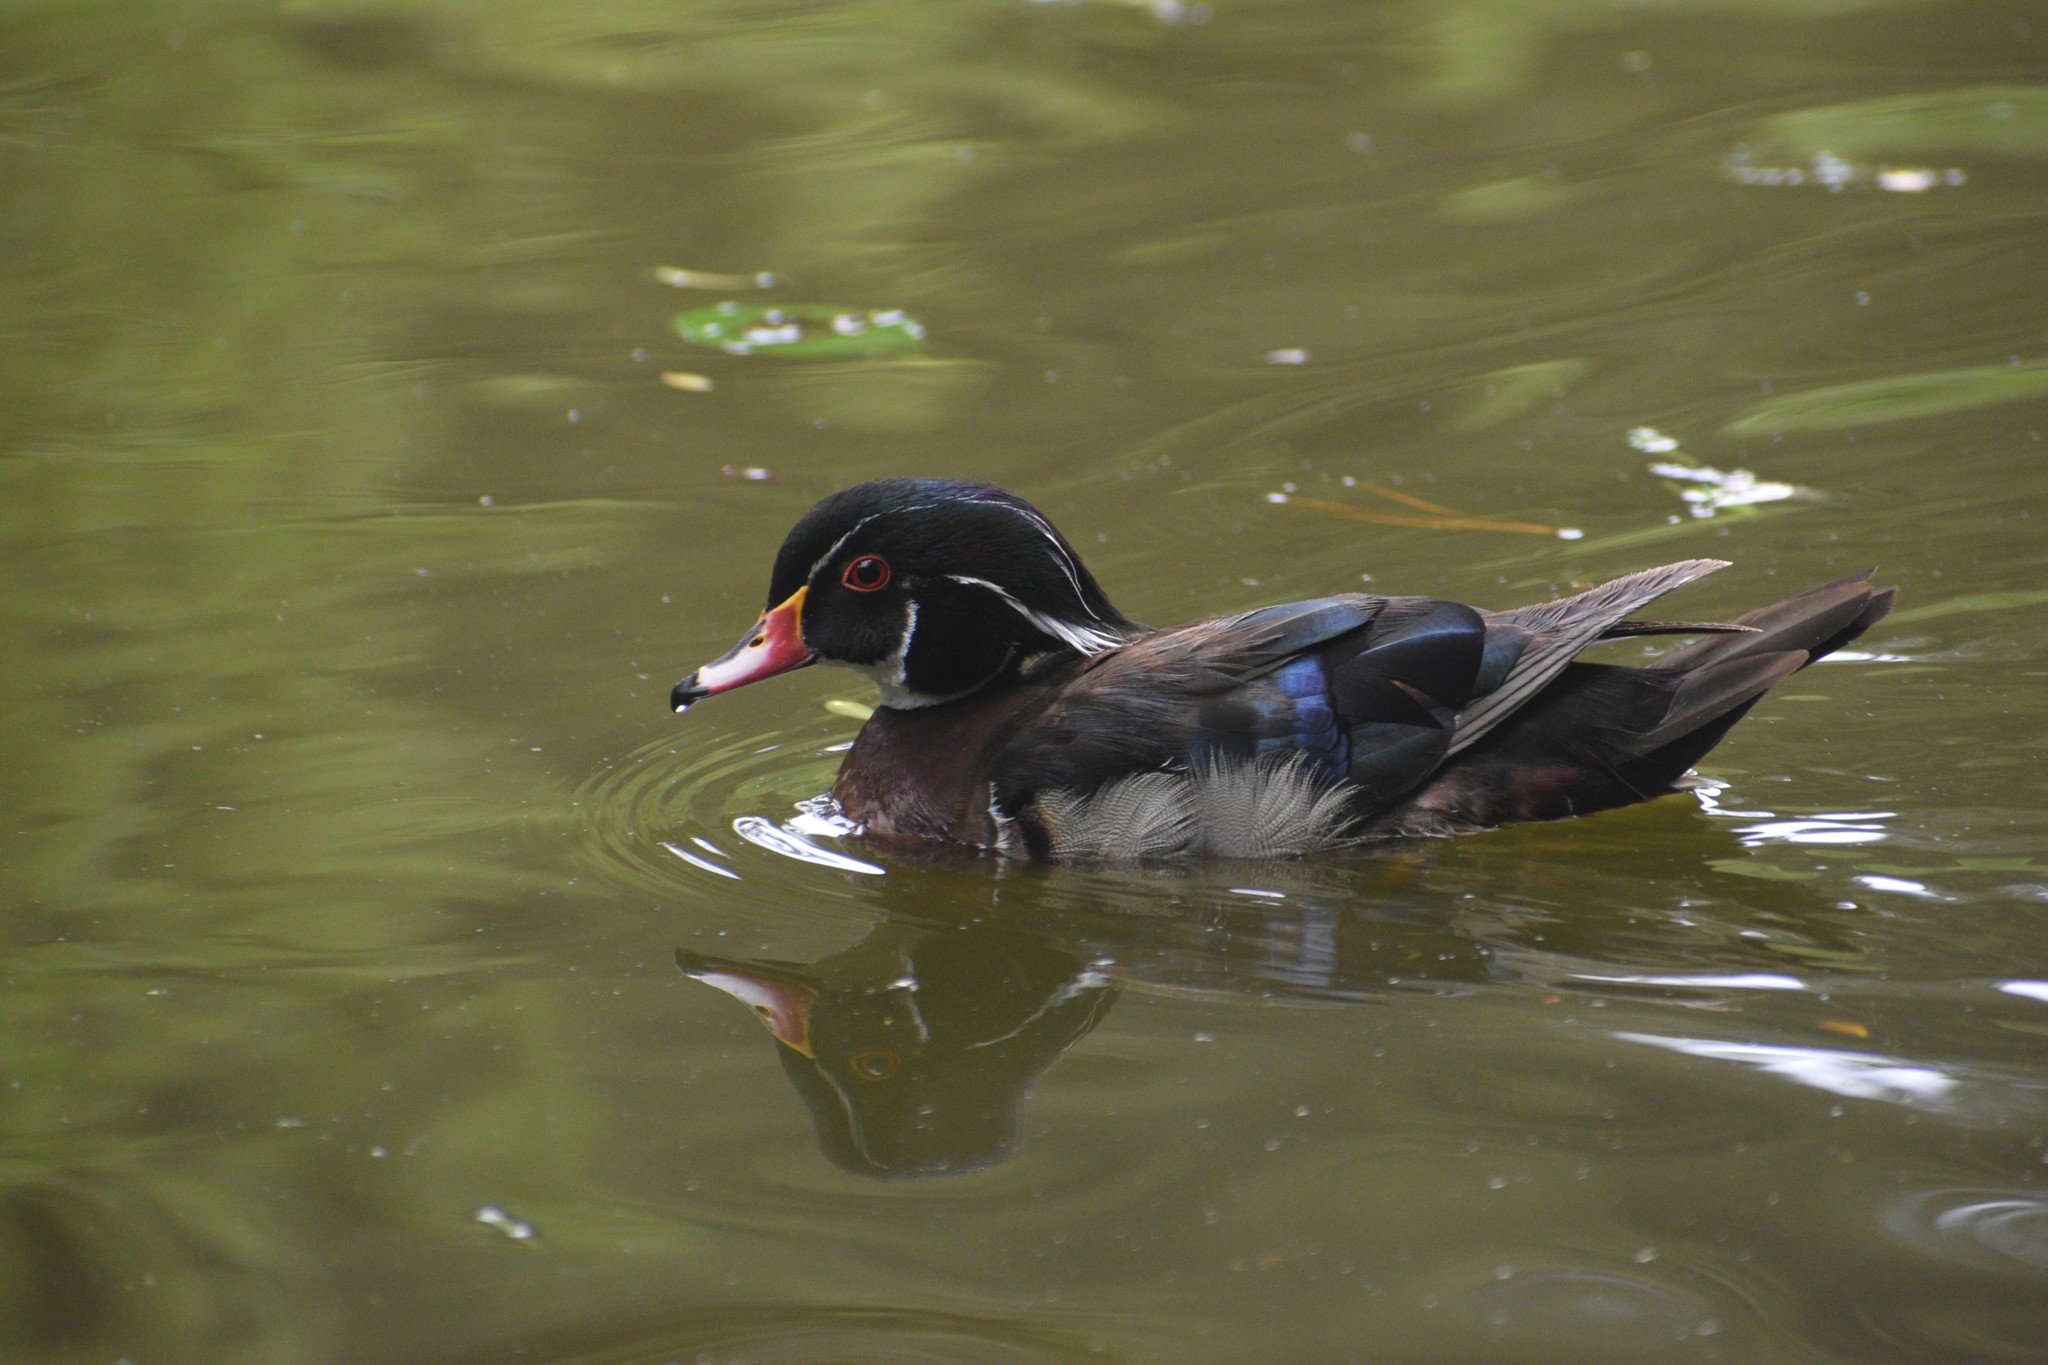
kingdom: Animalia
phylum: Chordata
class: Aves
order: Anseriformes
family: Anatidae
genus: Aix
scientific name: Aix sponsa
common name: Wood duck
